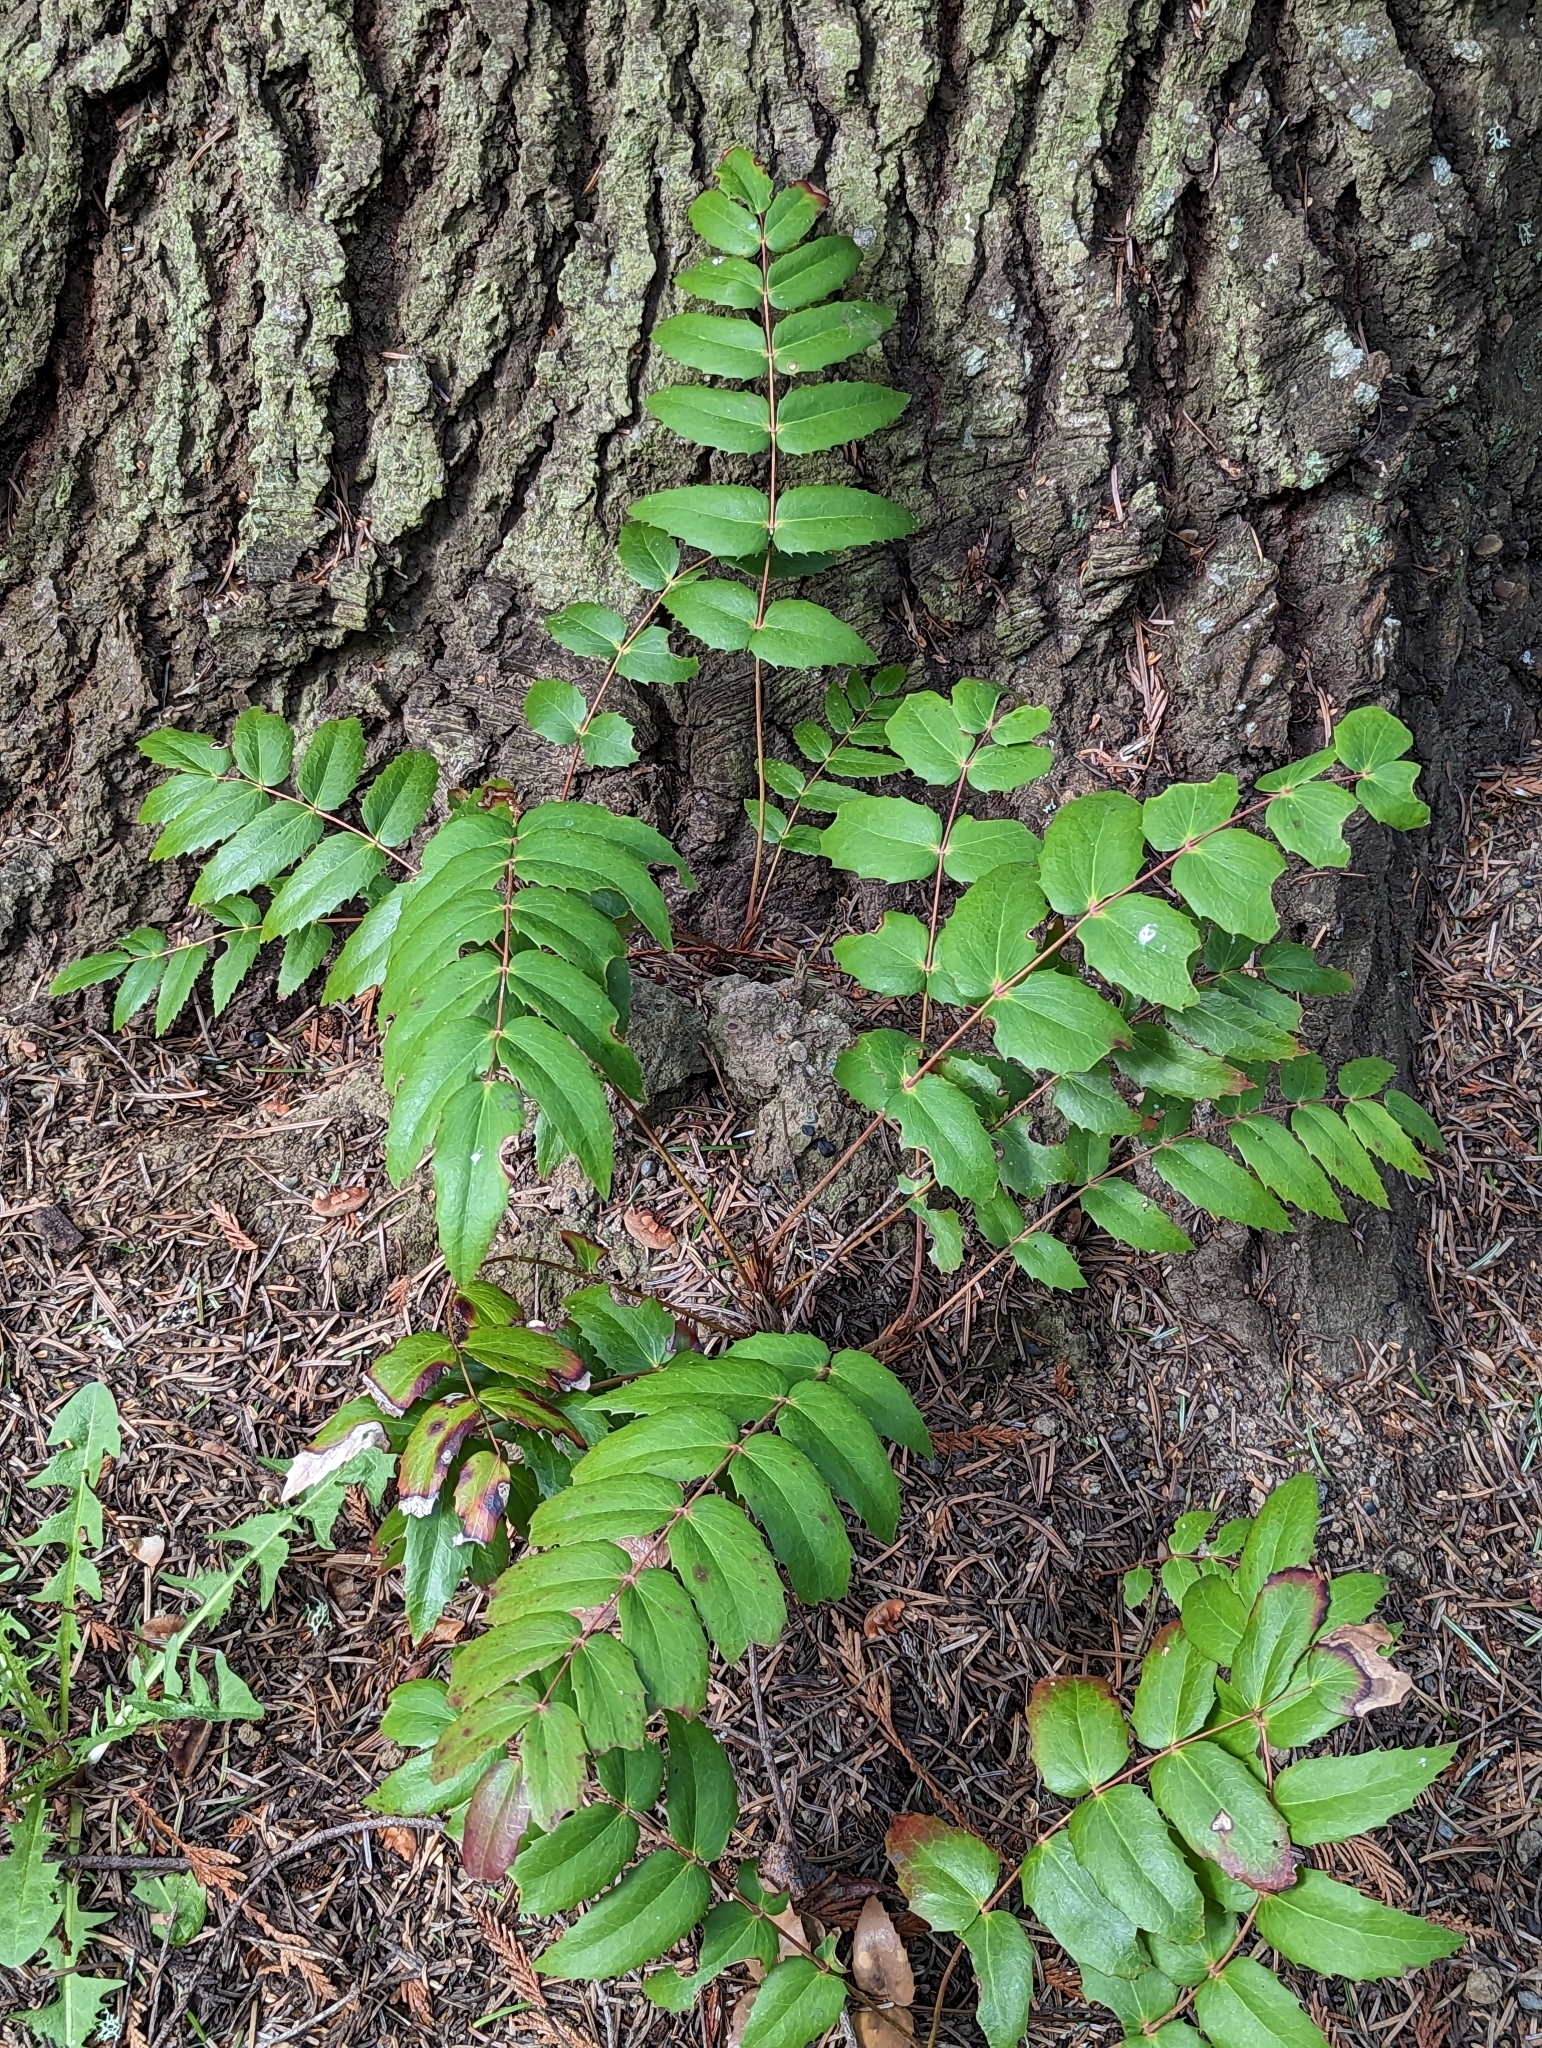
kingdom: Plantae
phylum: Tracheophyta
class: Magnoliopsida
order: Ranunculales
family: Berberidaceae
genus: Mahonia
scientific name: Mahonia nervosa
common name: Cascade oregon-grape
